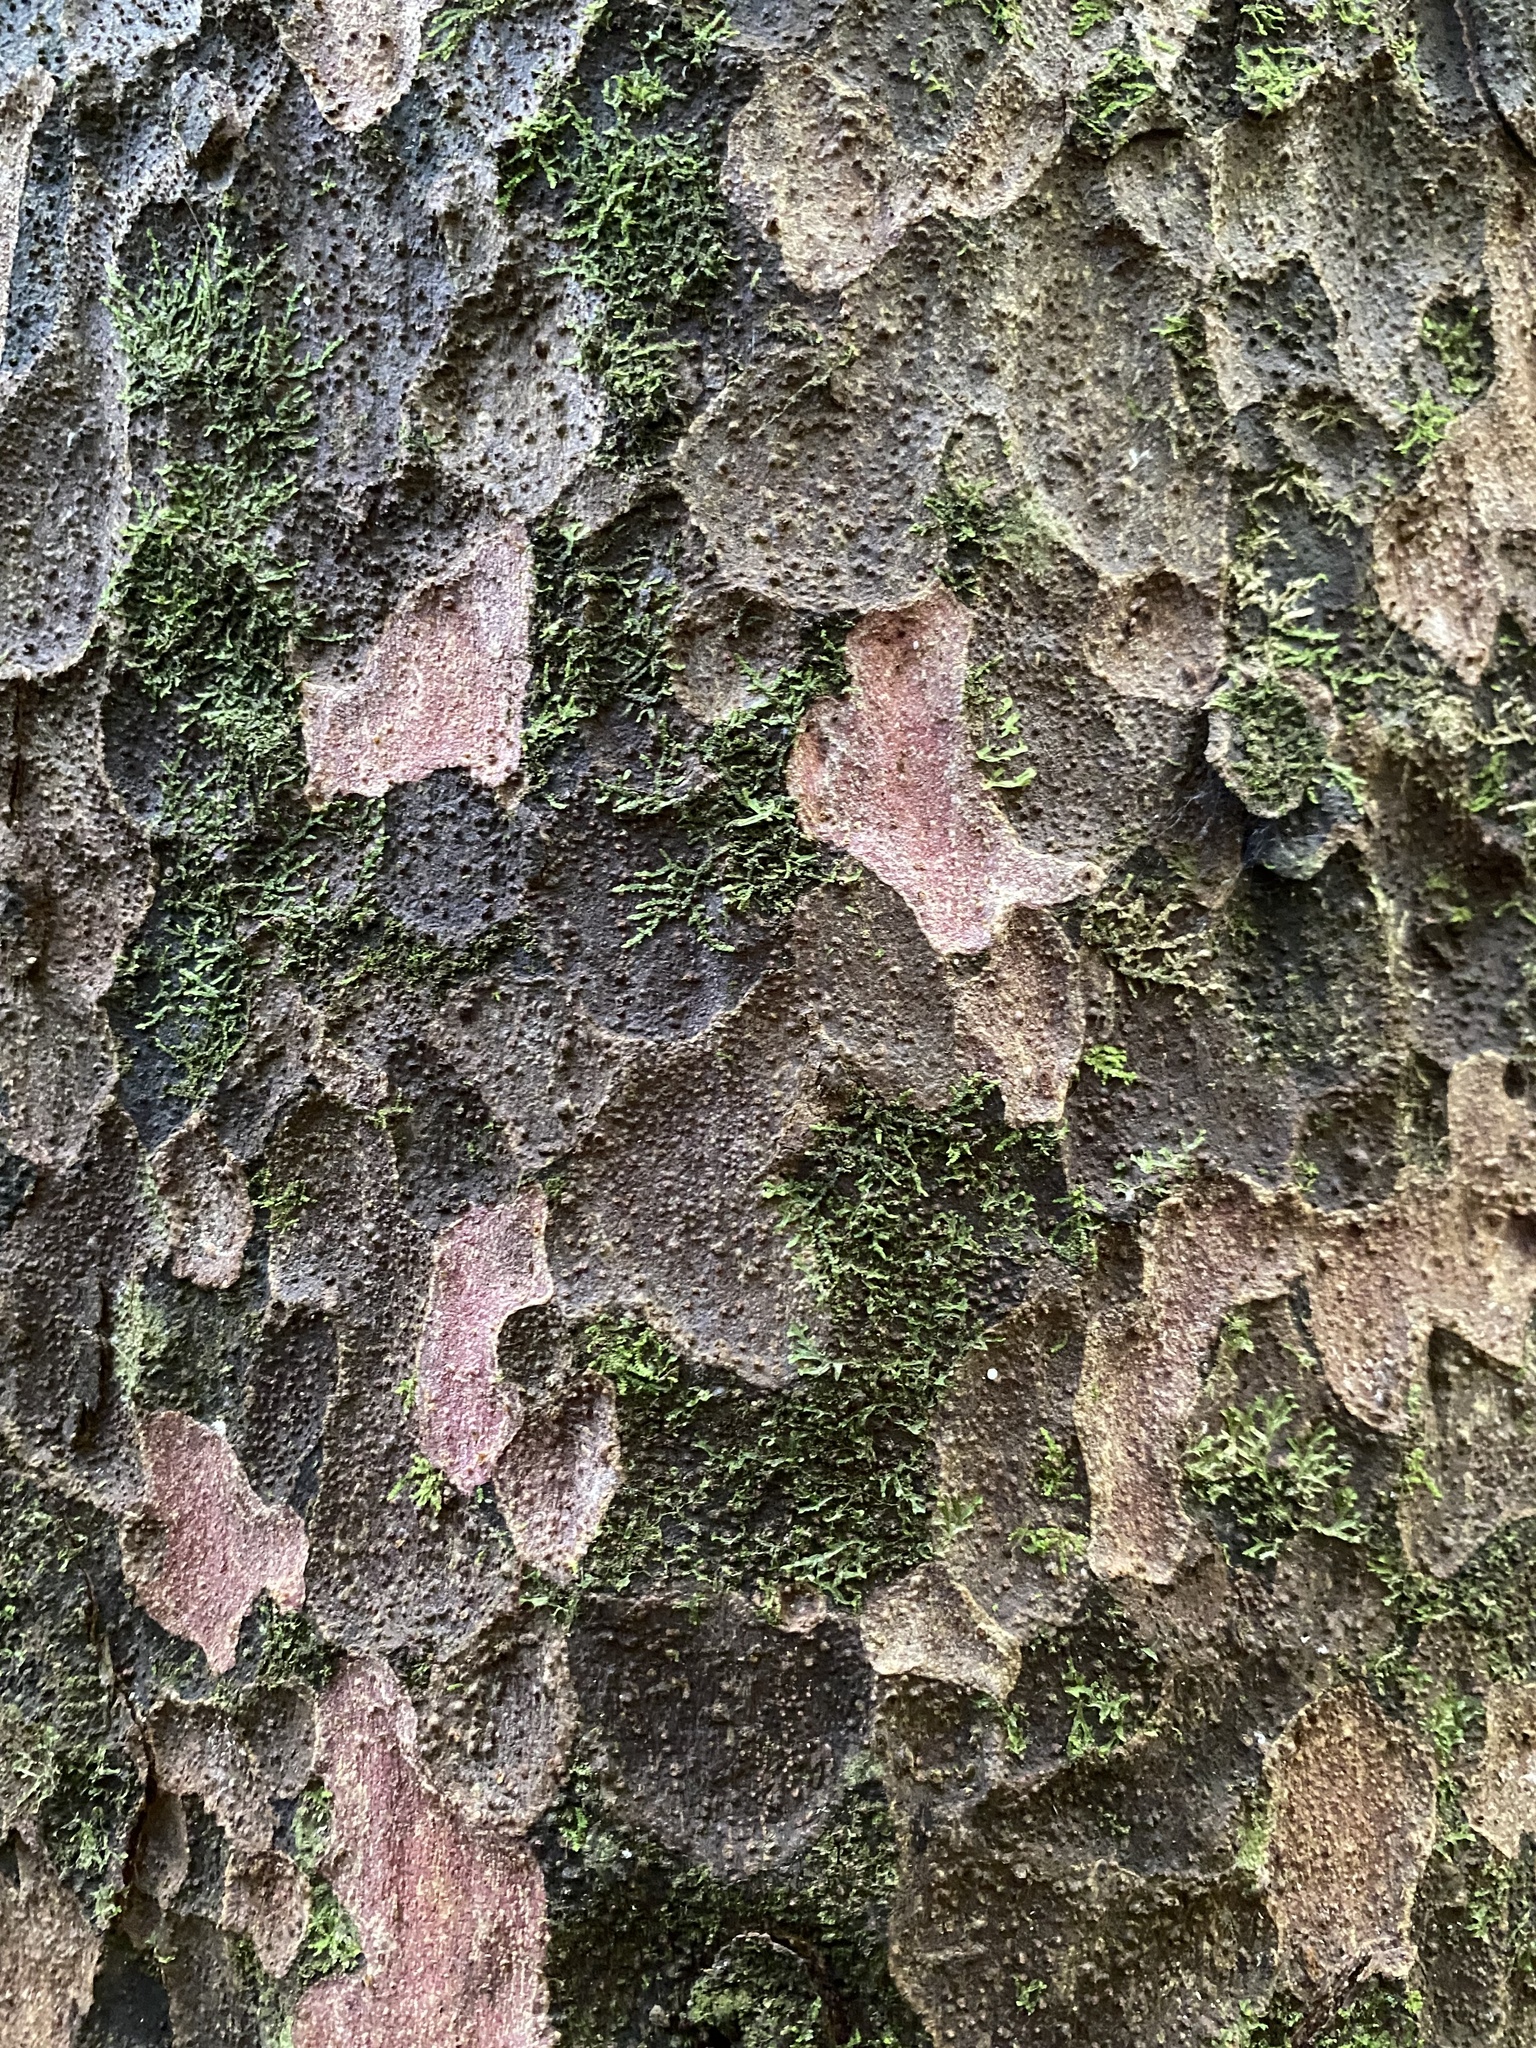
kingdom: Plantae
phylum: Tracheophyta
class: Pinopsida
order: Pinales
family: Podocarpaceae
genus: Prumnopitys
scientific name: Prumnopitys taxifolia
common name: Matai
